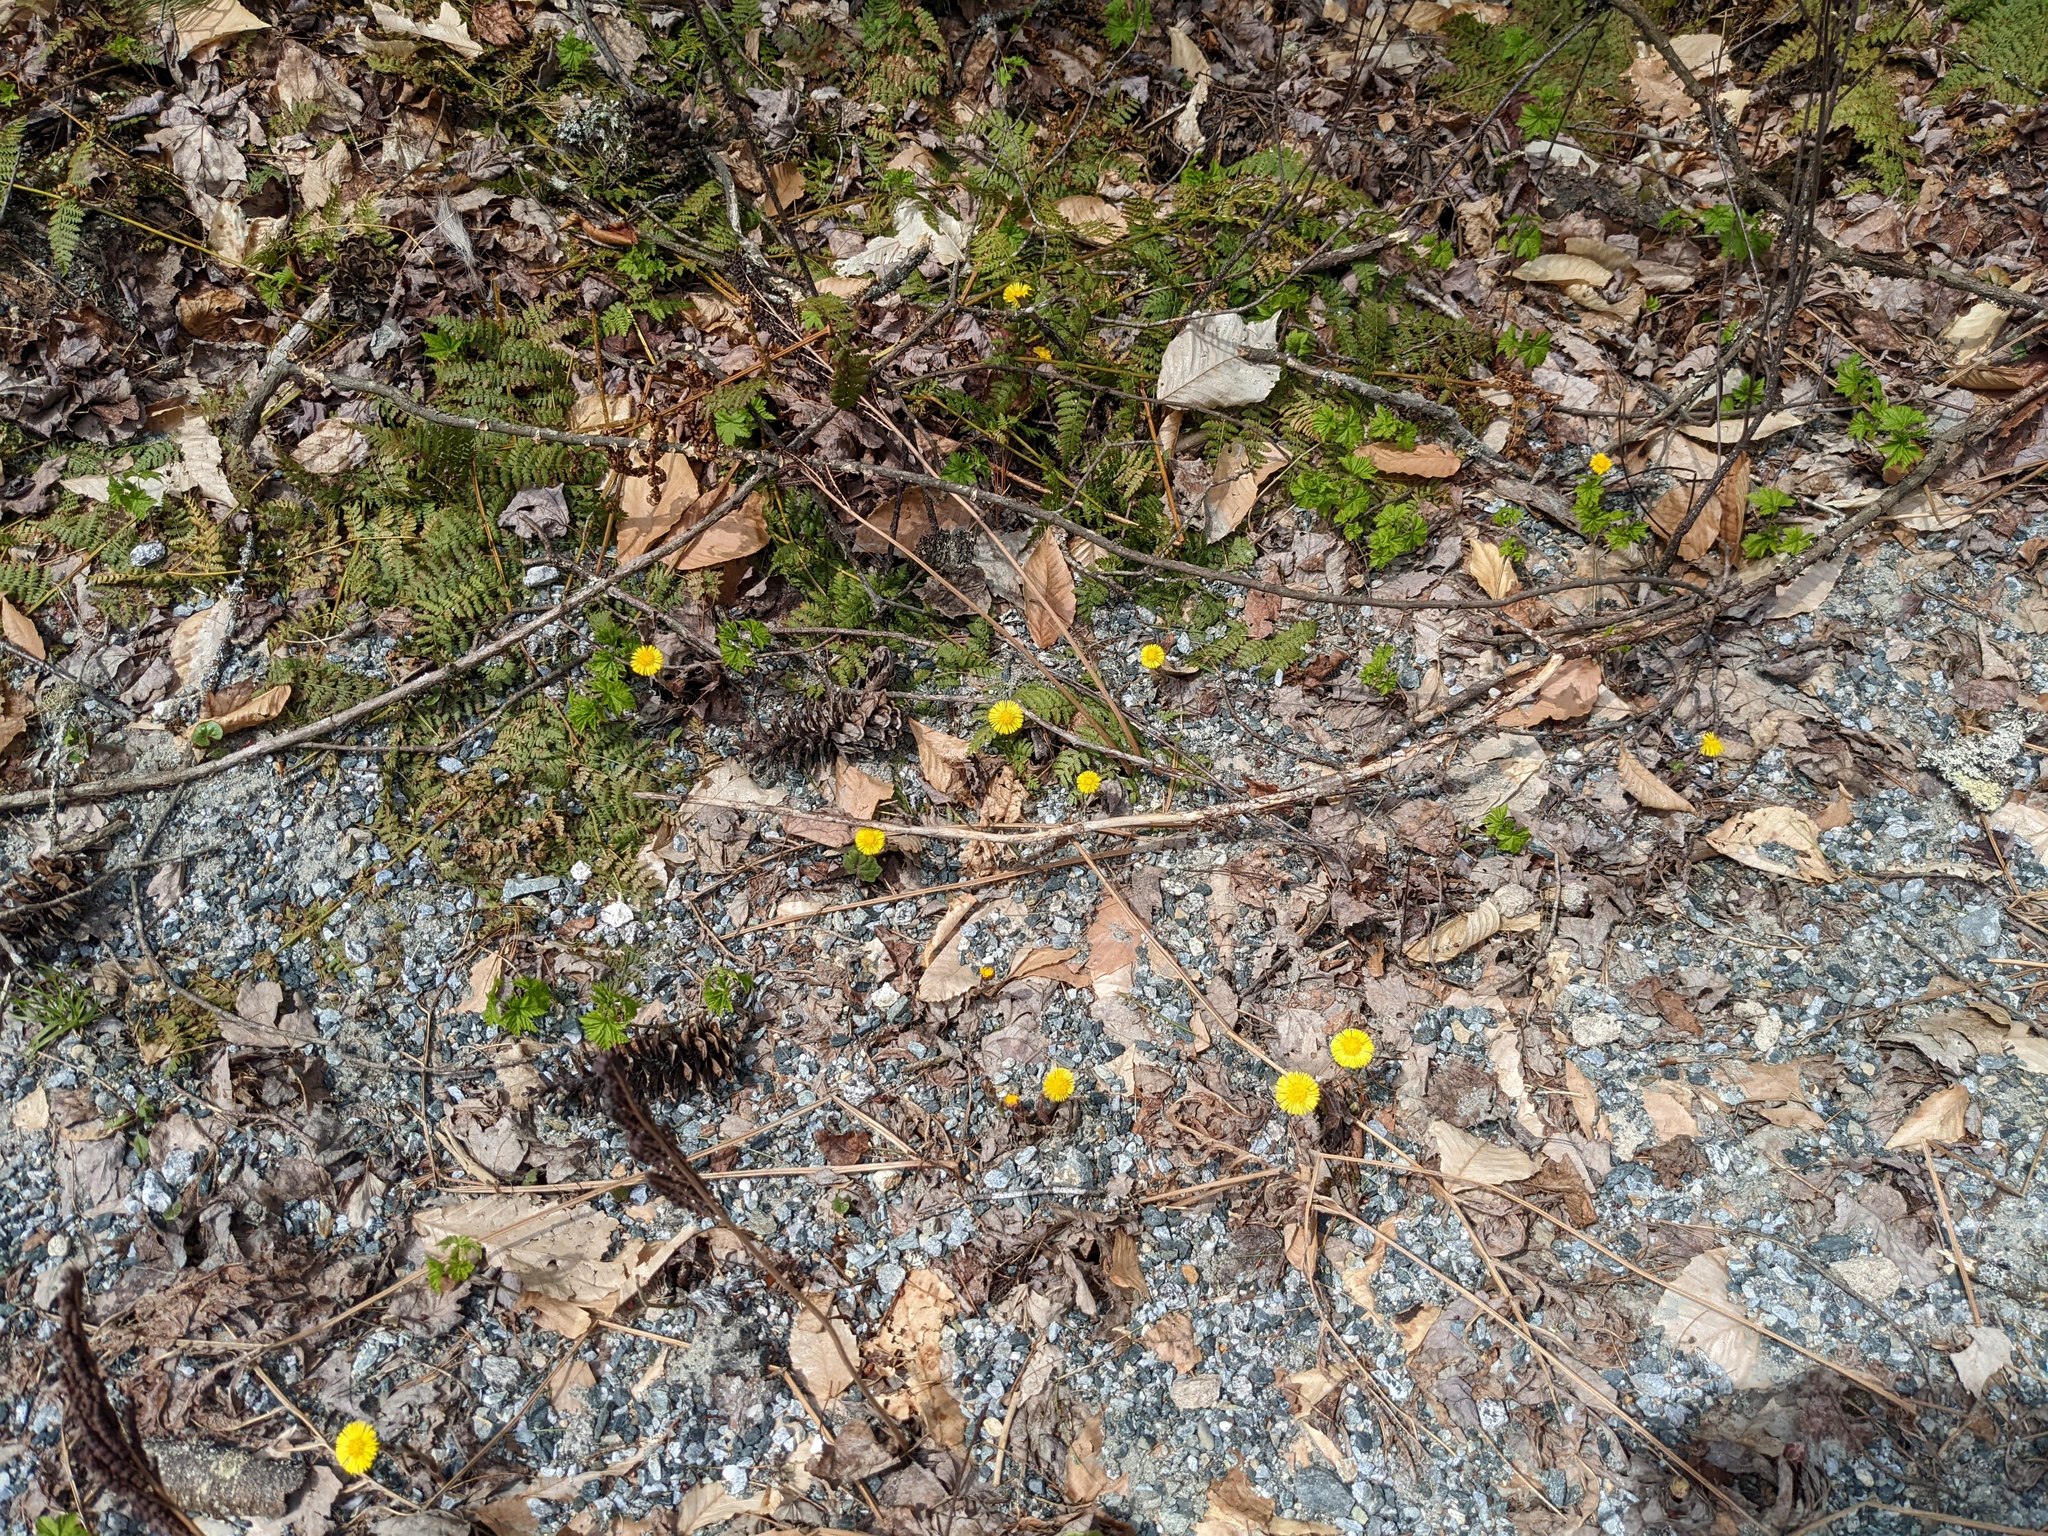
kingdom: Plantae
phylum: Tracheophyta
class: Magnoliopsida
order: Asterales
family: Asteraceae
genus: Tussilago
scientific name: Tussilago farfara
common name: Coltsfoot
